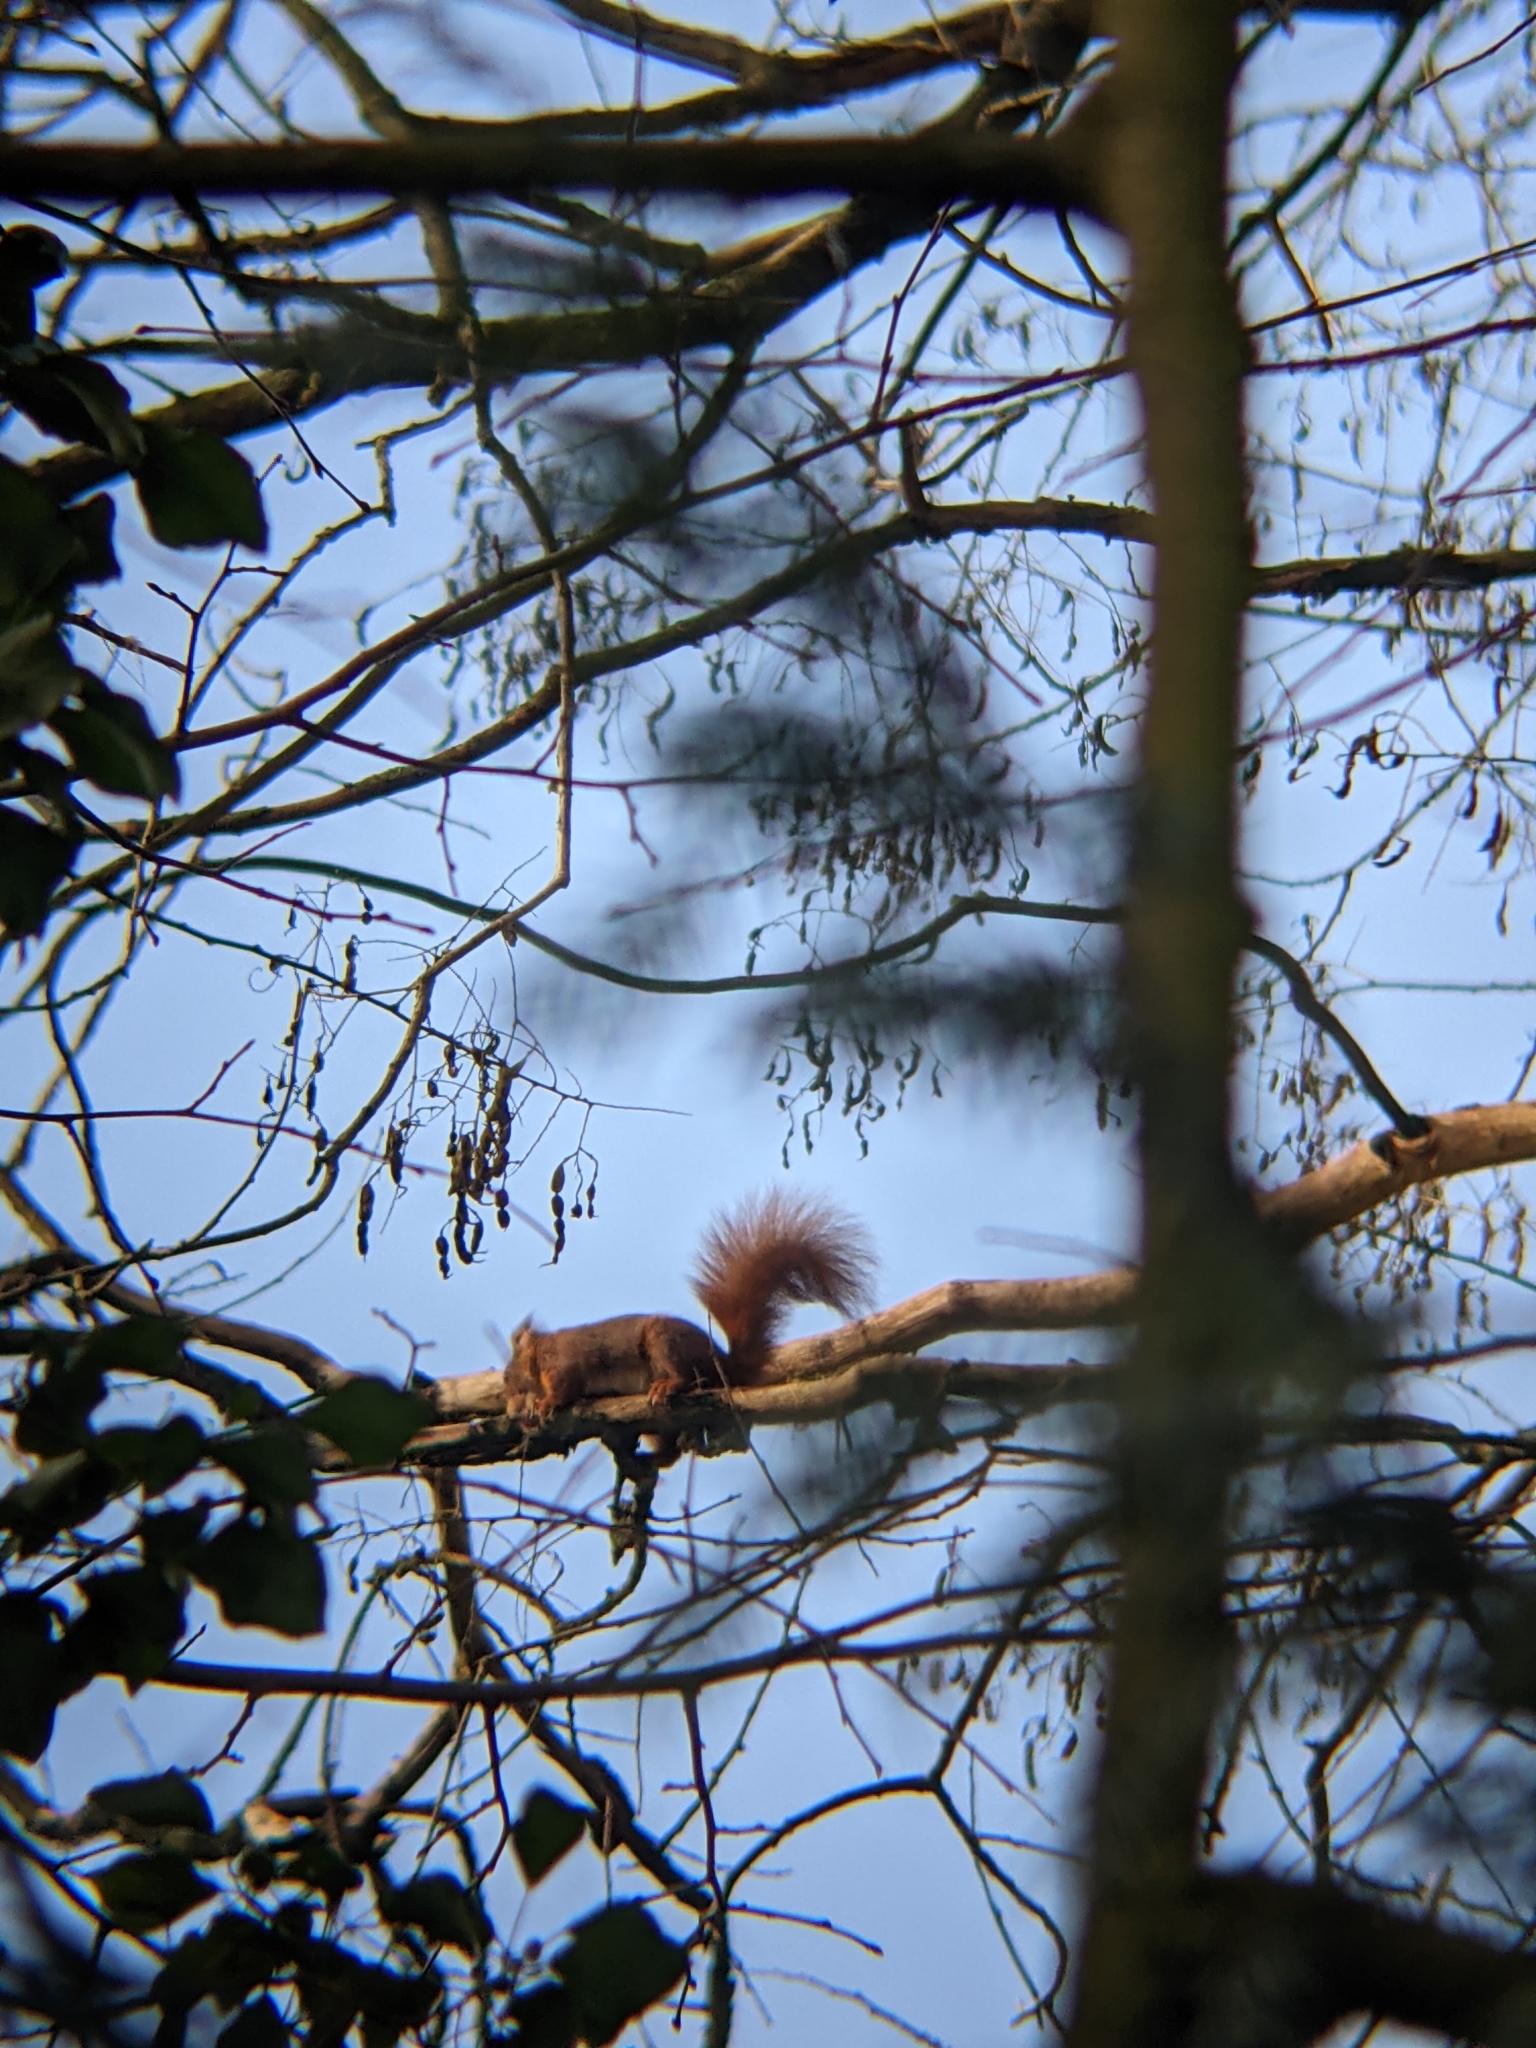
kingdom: Animalia
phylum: Chordata
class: Mammalia
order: Rodentia
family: Sciuridae
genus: Sciurus
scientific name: Sciurus vulgaris
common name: Eurasian red squirrel
